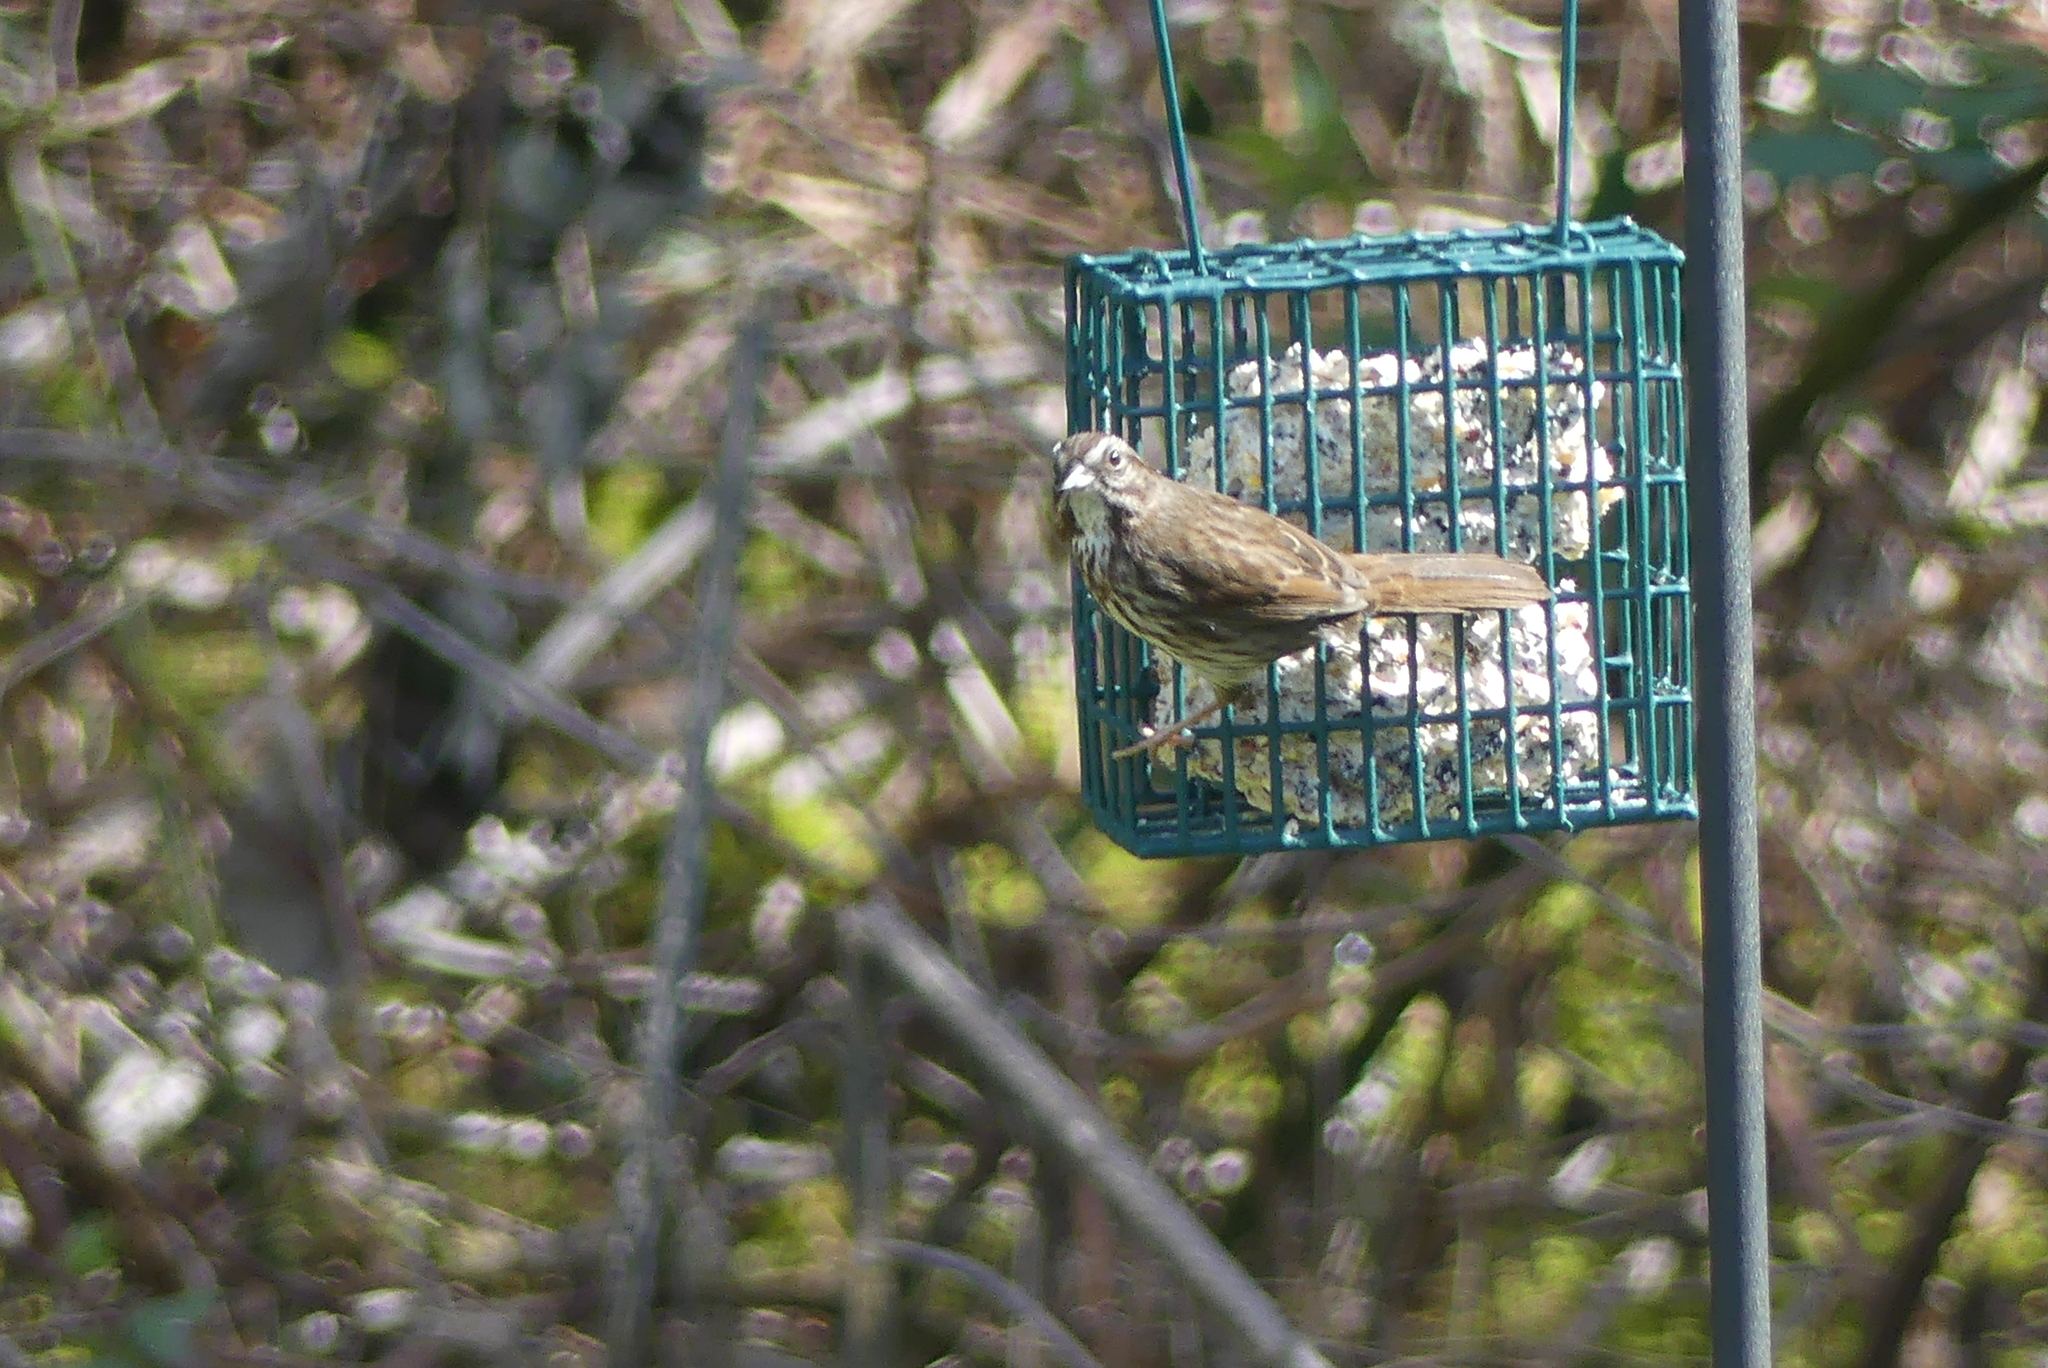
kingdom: Animalia
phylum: Chordata
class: Aves
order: Passeriformes
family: Passerellidae
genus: Melospiza
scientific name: Melospiza melodia
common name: Song sparrow
